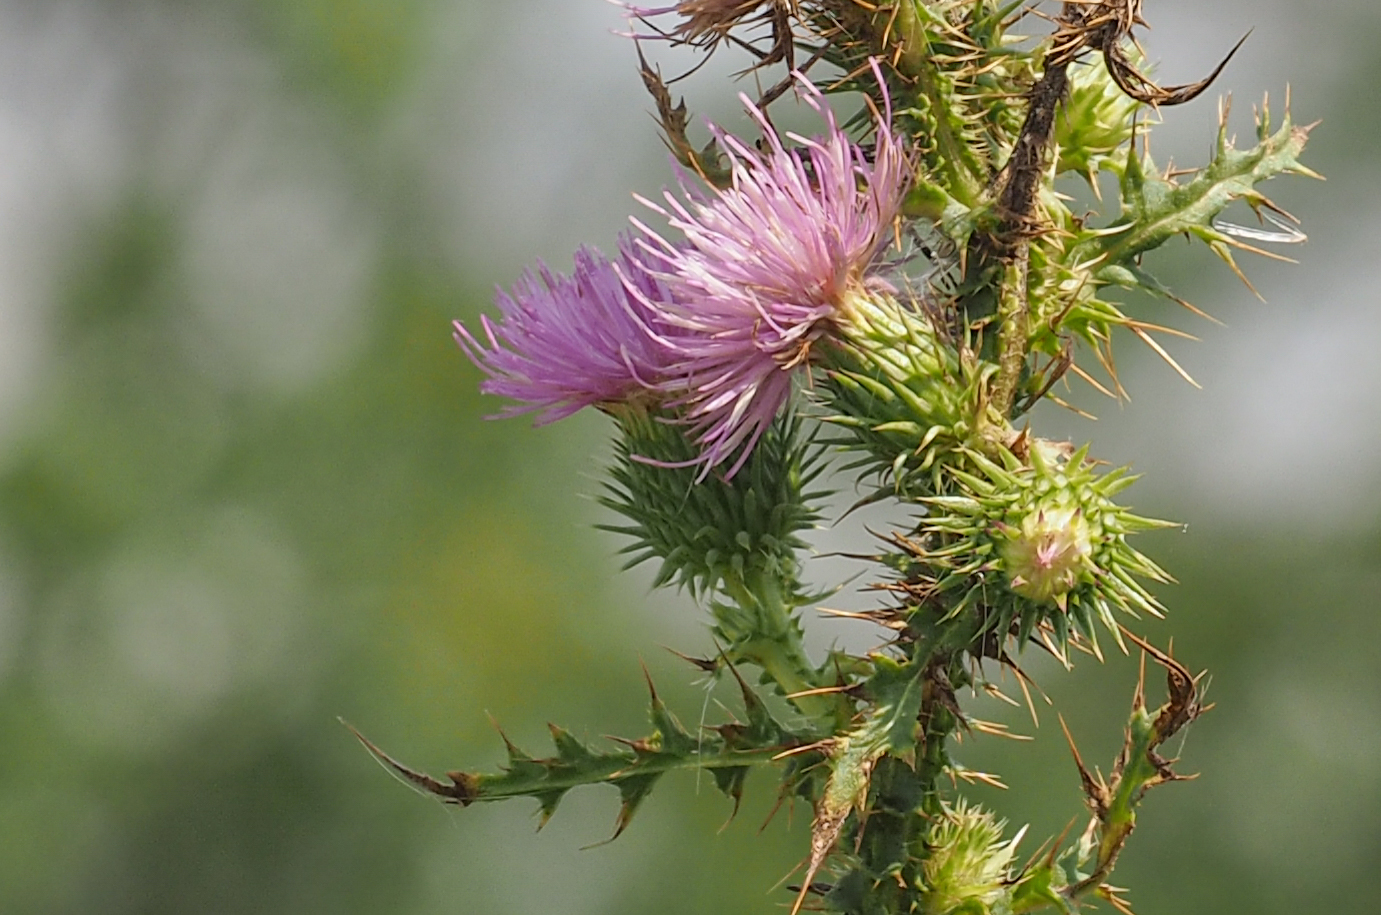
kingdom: Plantae
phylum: Tracheophyta
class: Magnoliopsida
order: Asterales
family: Asteraceae
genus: Carduus
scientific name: Carduus acanthoides
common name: Plumeless thistle
